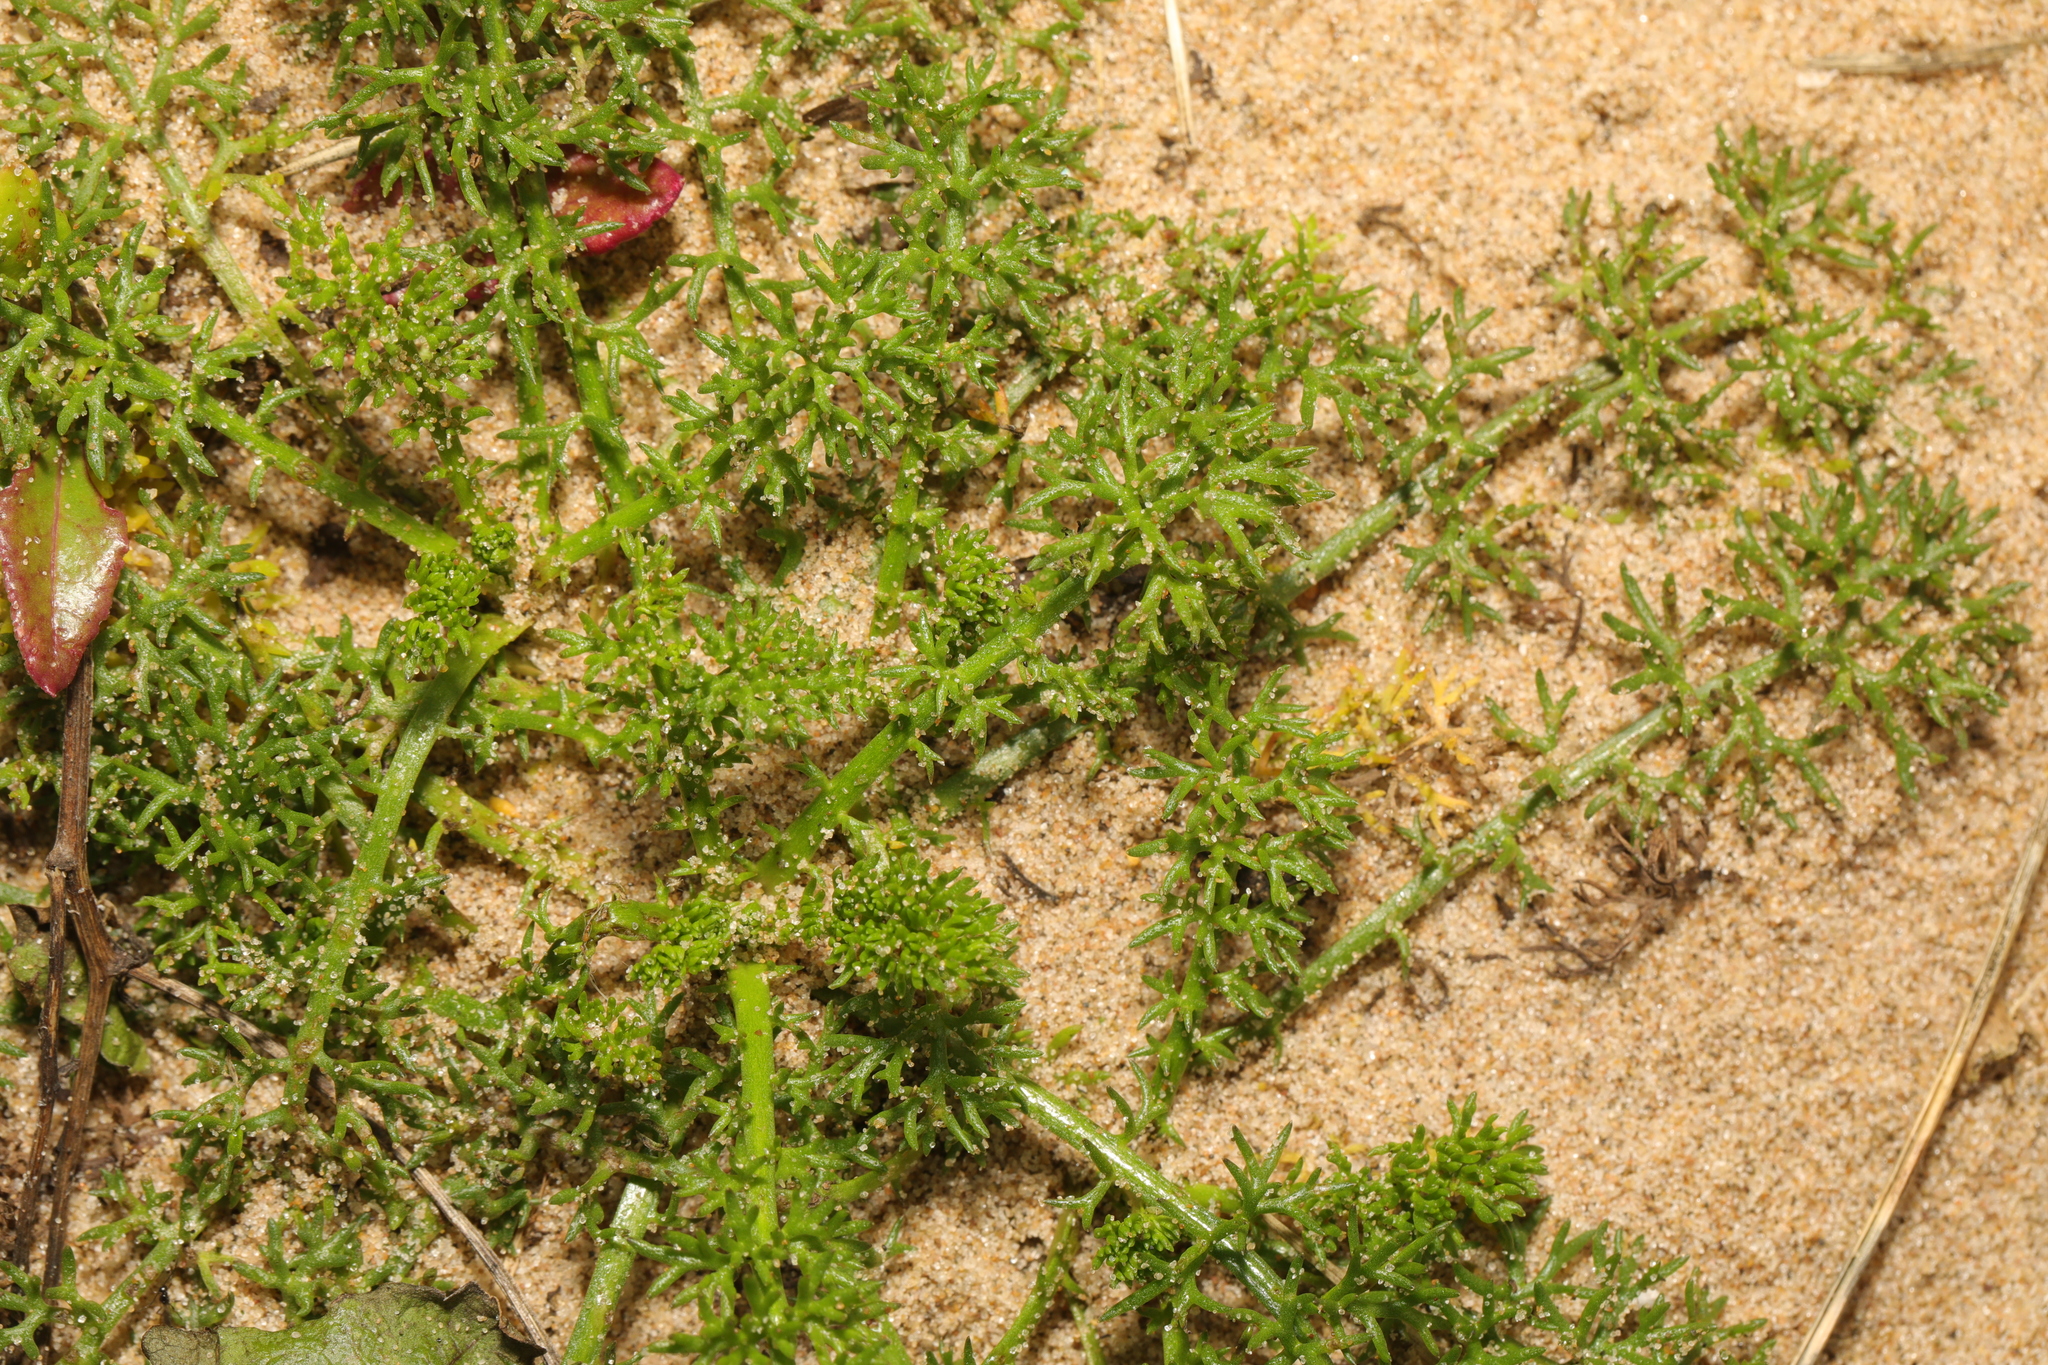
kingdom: Plantae
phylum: Tracheophyta
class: Magnoliopsida
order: Asterales
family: Asteraceae
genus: Tripleurospermum
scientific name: Tripleurospermum maritimum
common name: Sea mayweed
